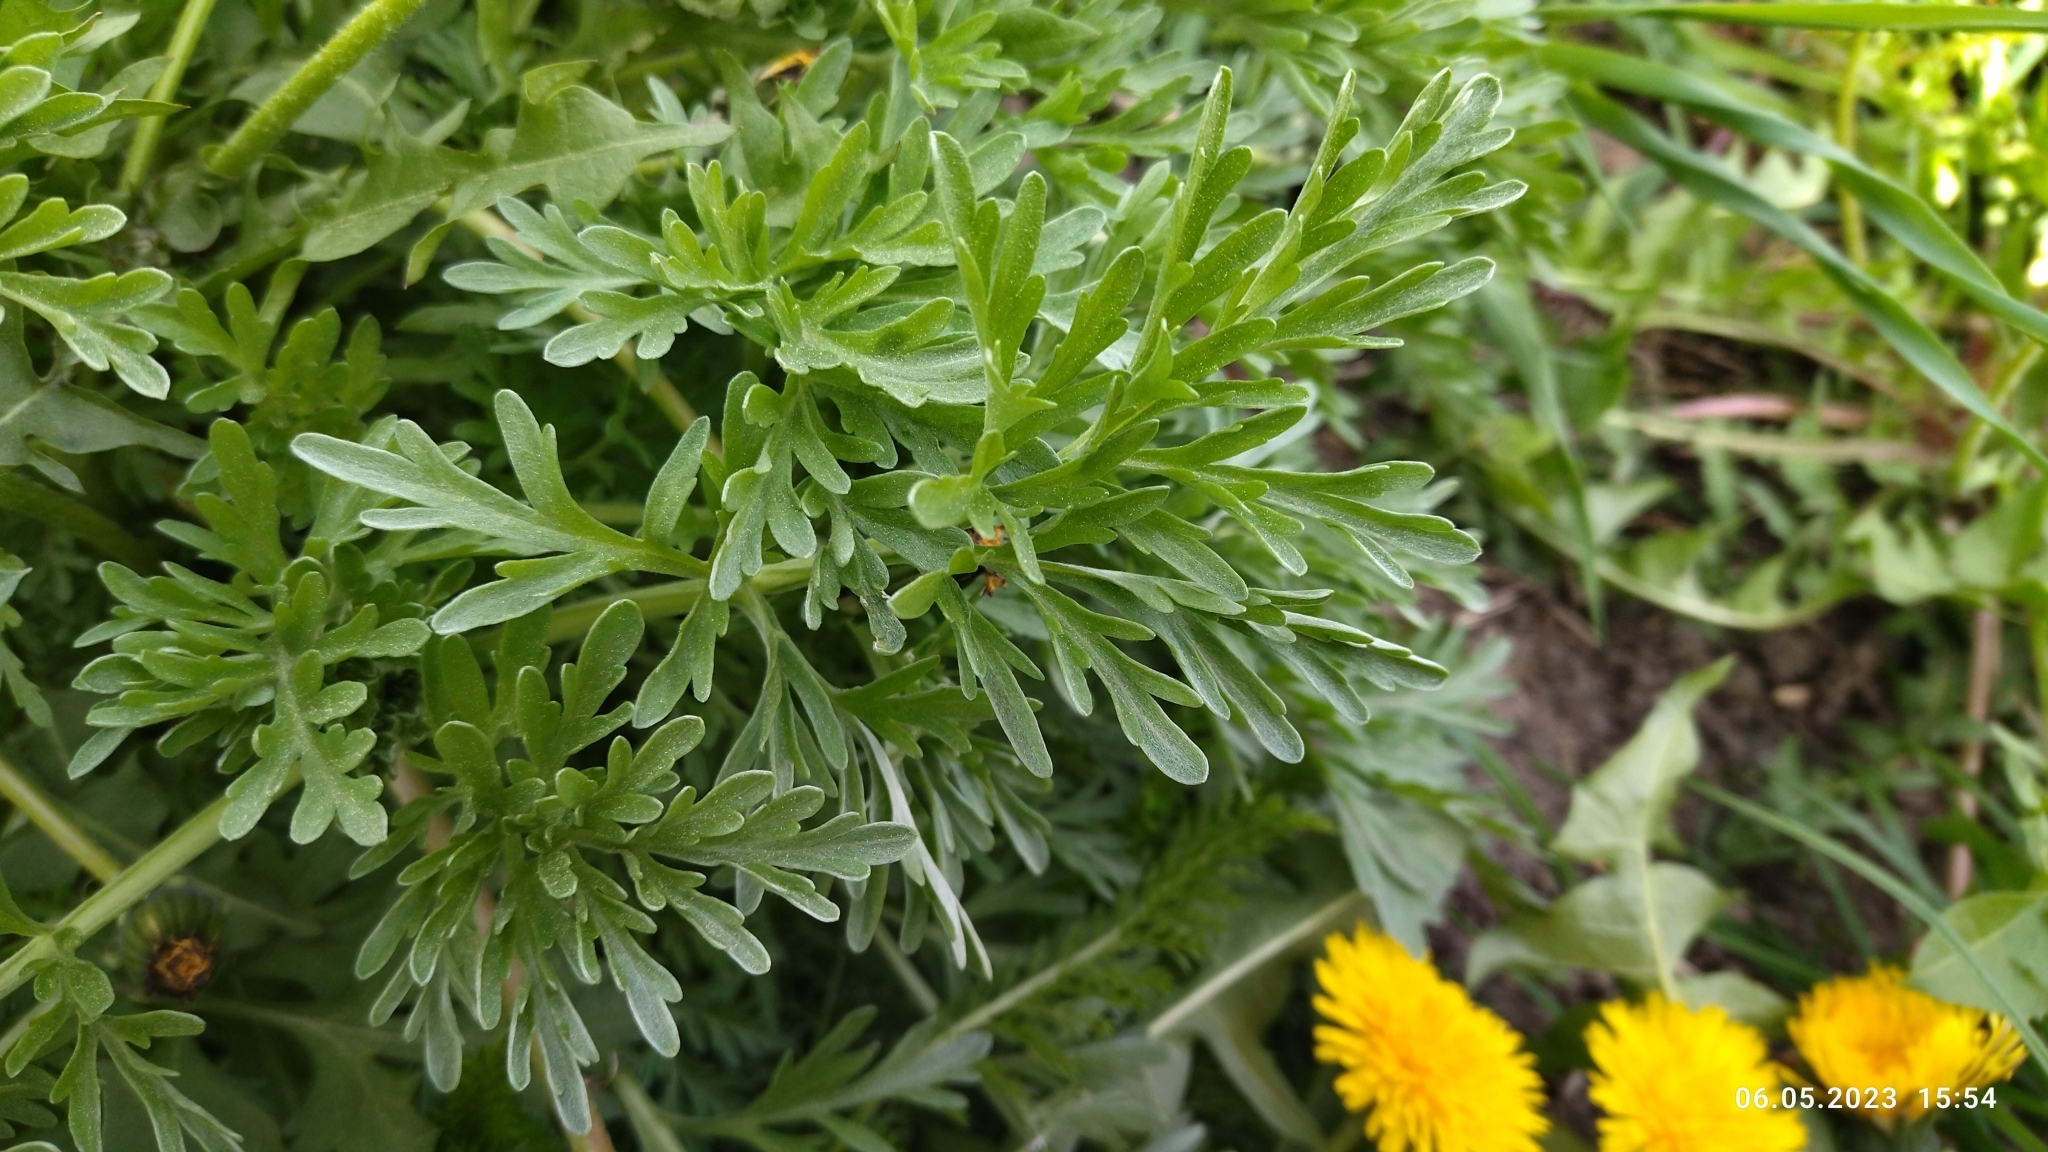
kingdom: Plantae
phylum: Tracheophyta
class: Magnoliopsida
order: Asterales
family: Asteraceae
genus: Artemisia
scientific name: Artemisia absinthium
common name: Wormwood
